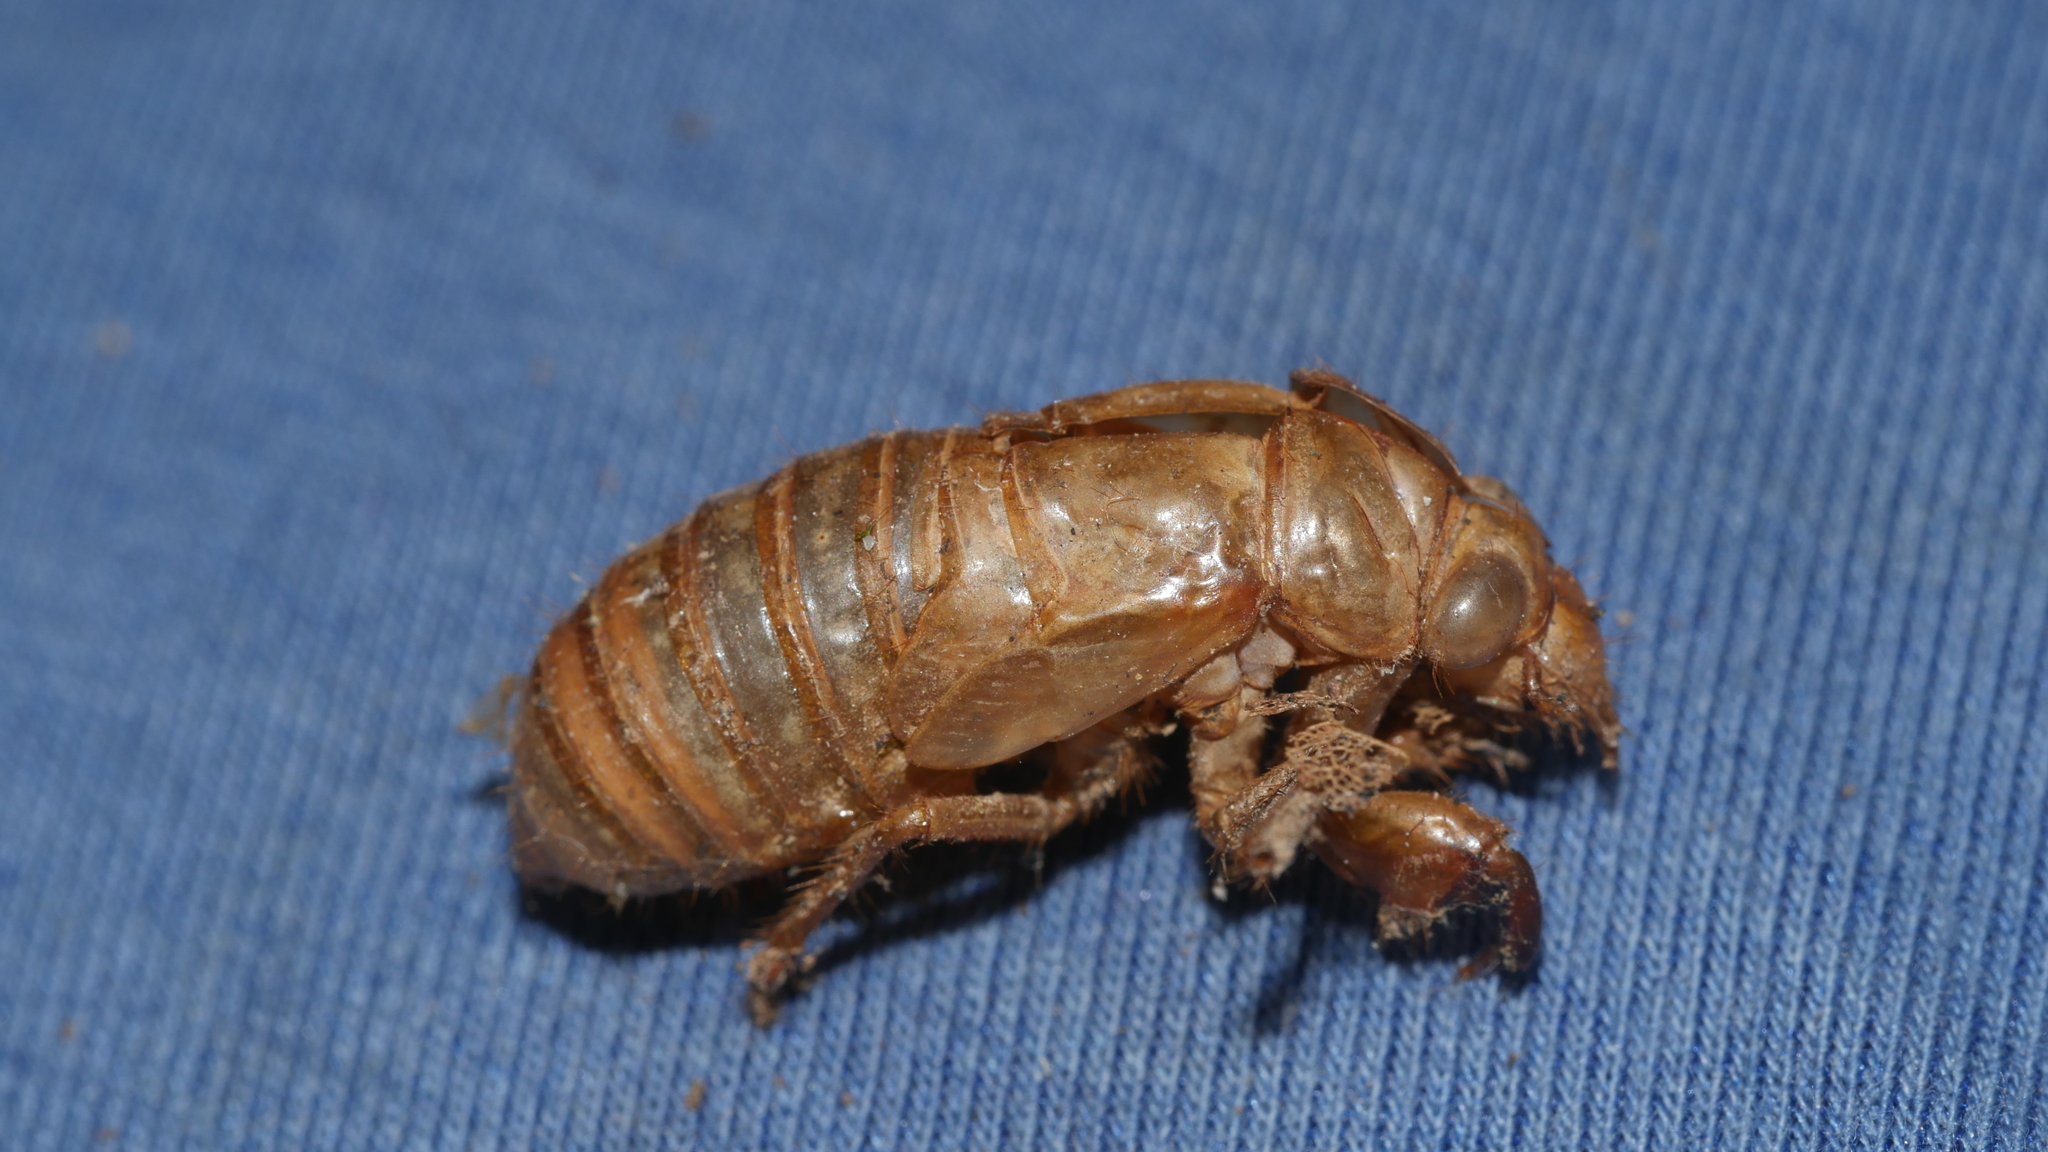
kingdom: Animalia
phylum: Arthropoda
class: Insecta
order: Hemiptera
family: Cicadidae
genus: Magicicada
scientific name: Magicicada
